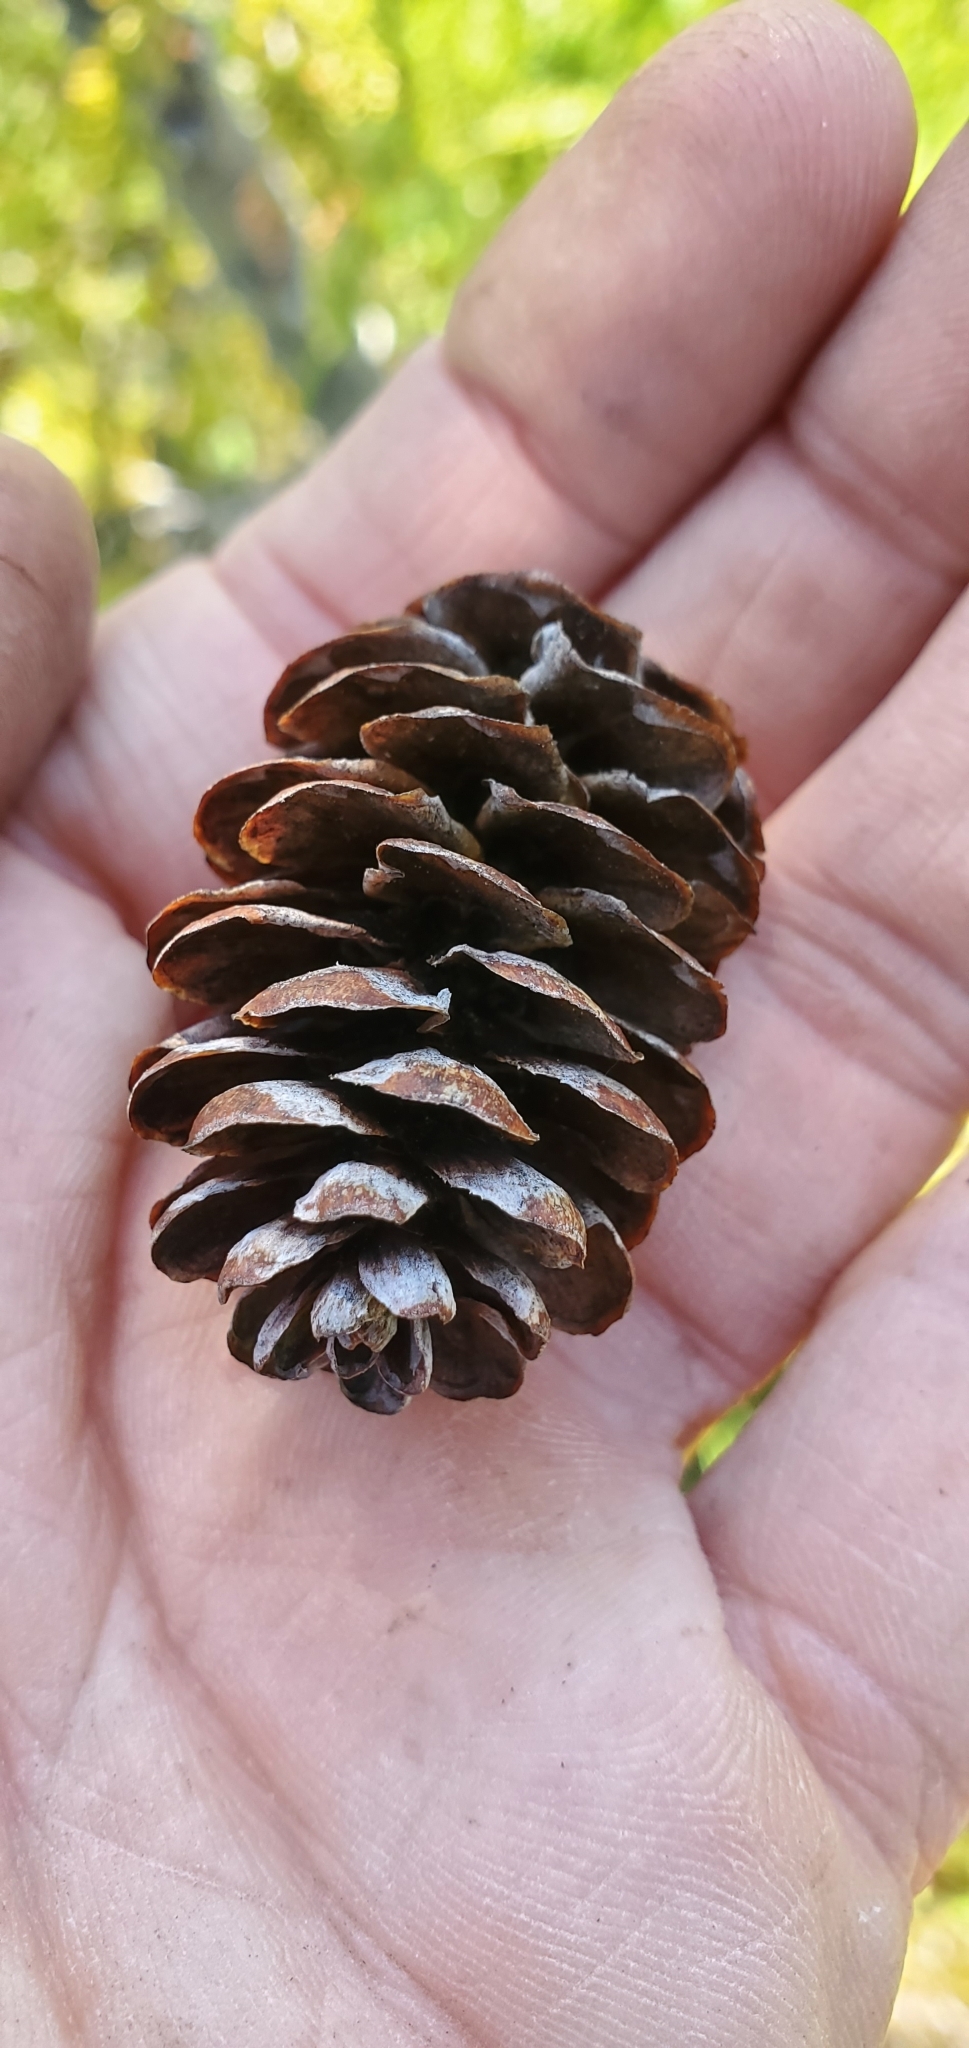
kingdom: Plantae
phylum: Tracheophyta
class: Pinopsida
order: Pinales
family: Pinaceae
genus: Picea
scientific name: Picea glauca
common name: White spruce
